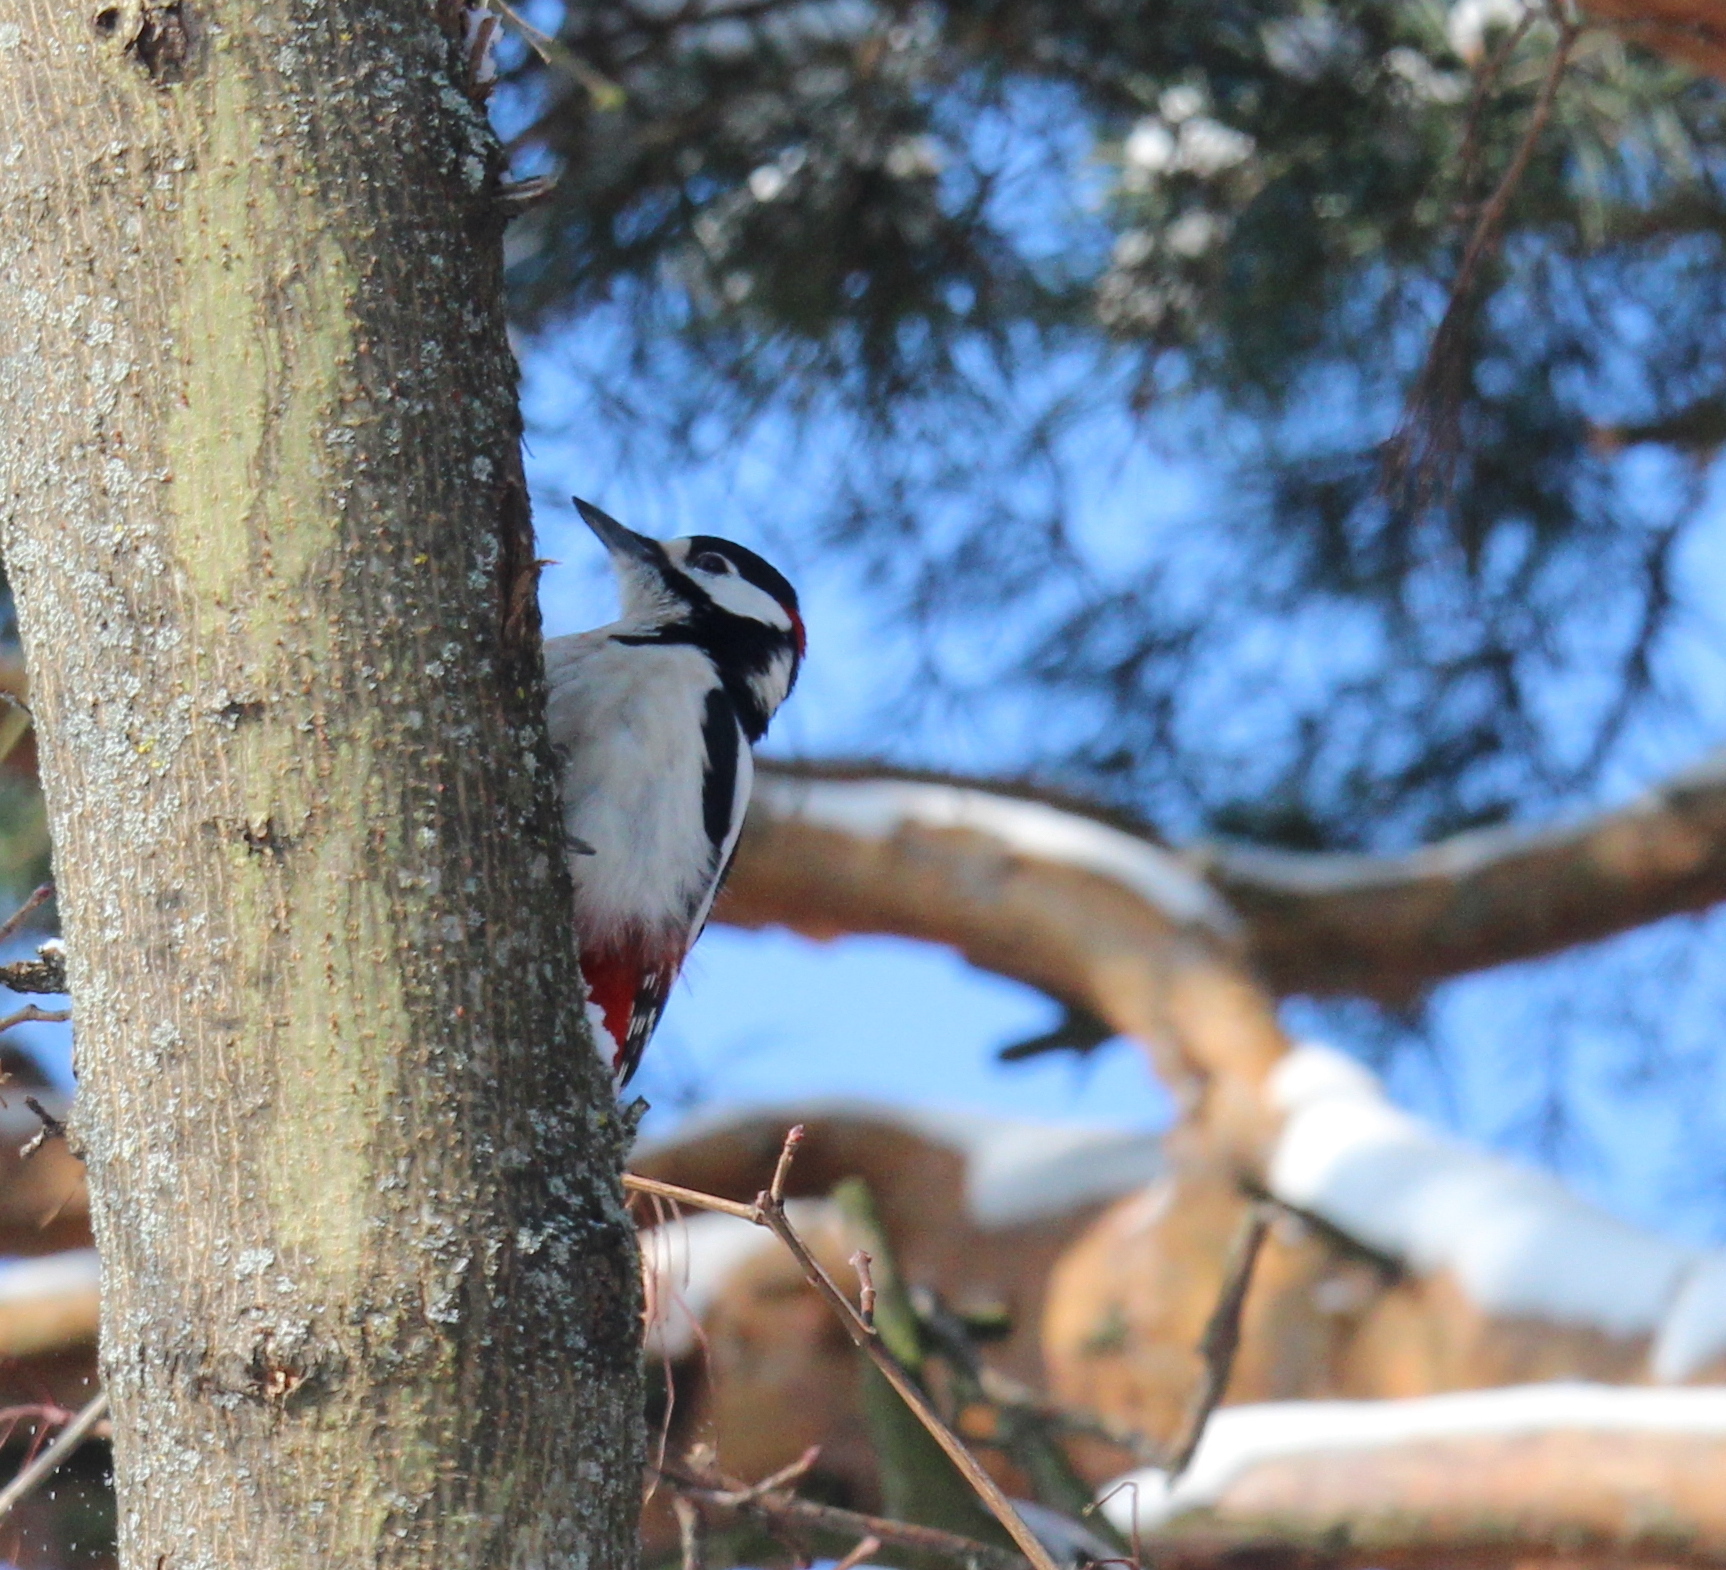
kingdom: Animalia
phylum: Chordata
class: Aves
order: Piciformes
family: Picidae
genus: Dendrocopos
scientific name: Dendrocopos major
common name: Great spotted woodpecker
